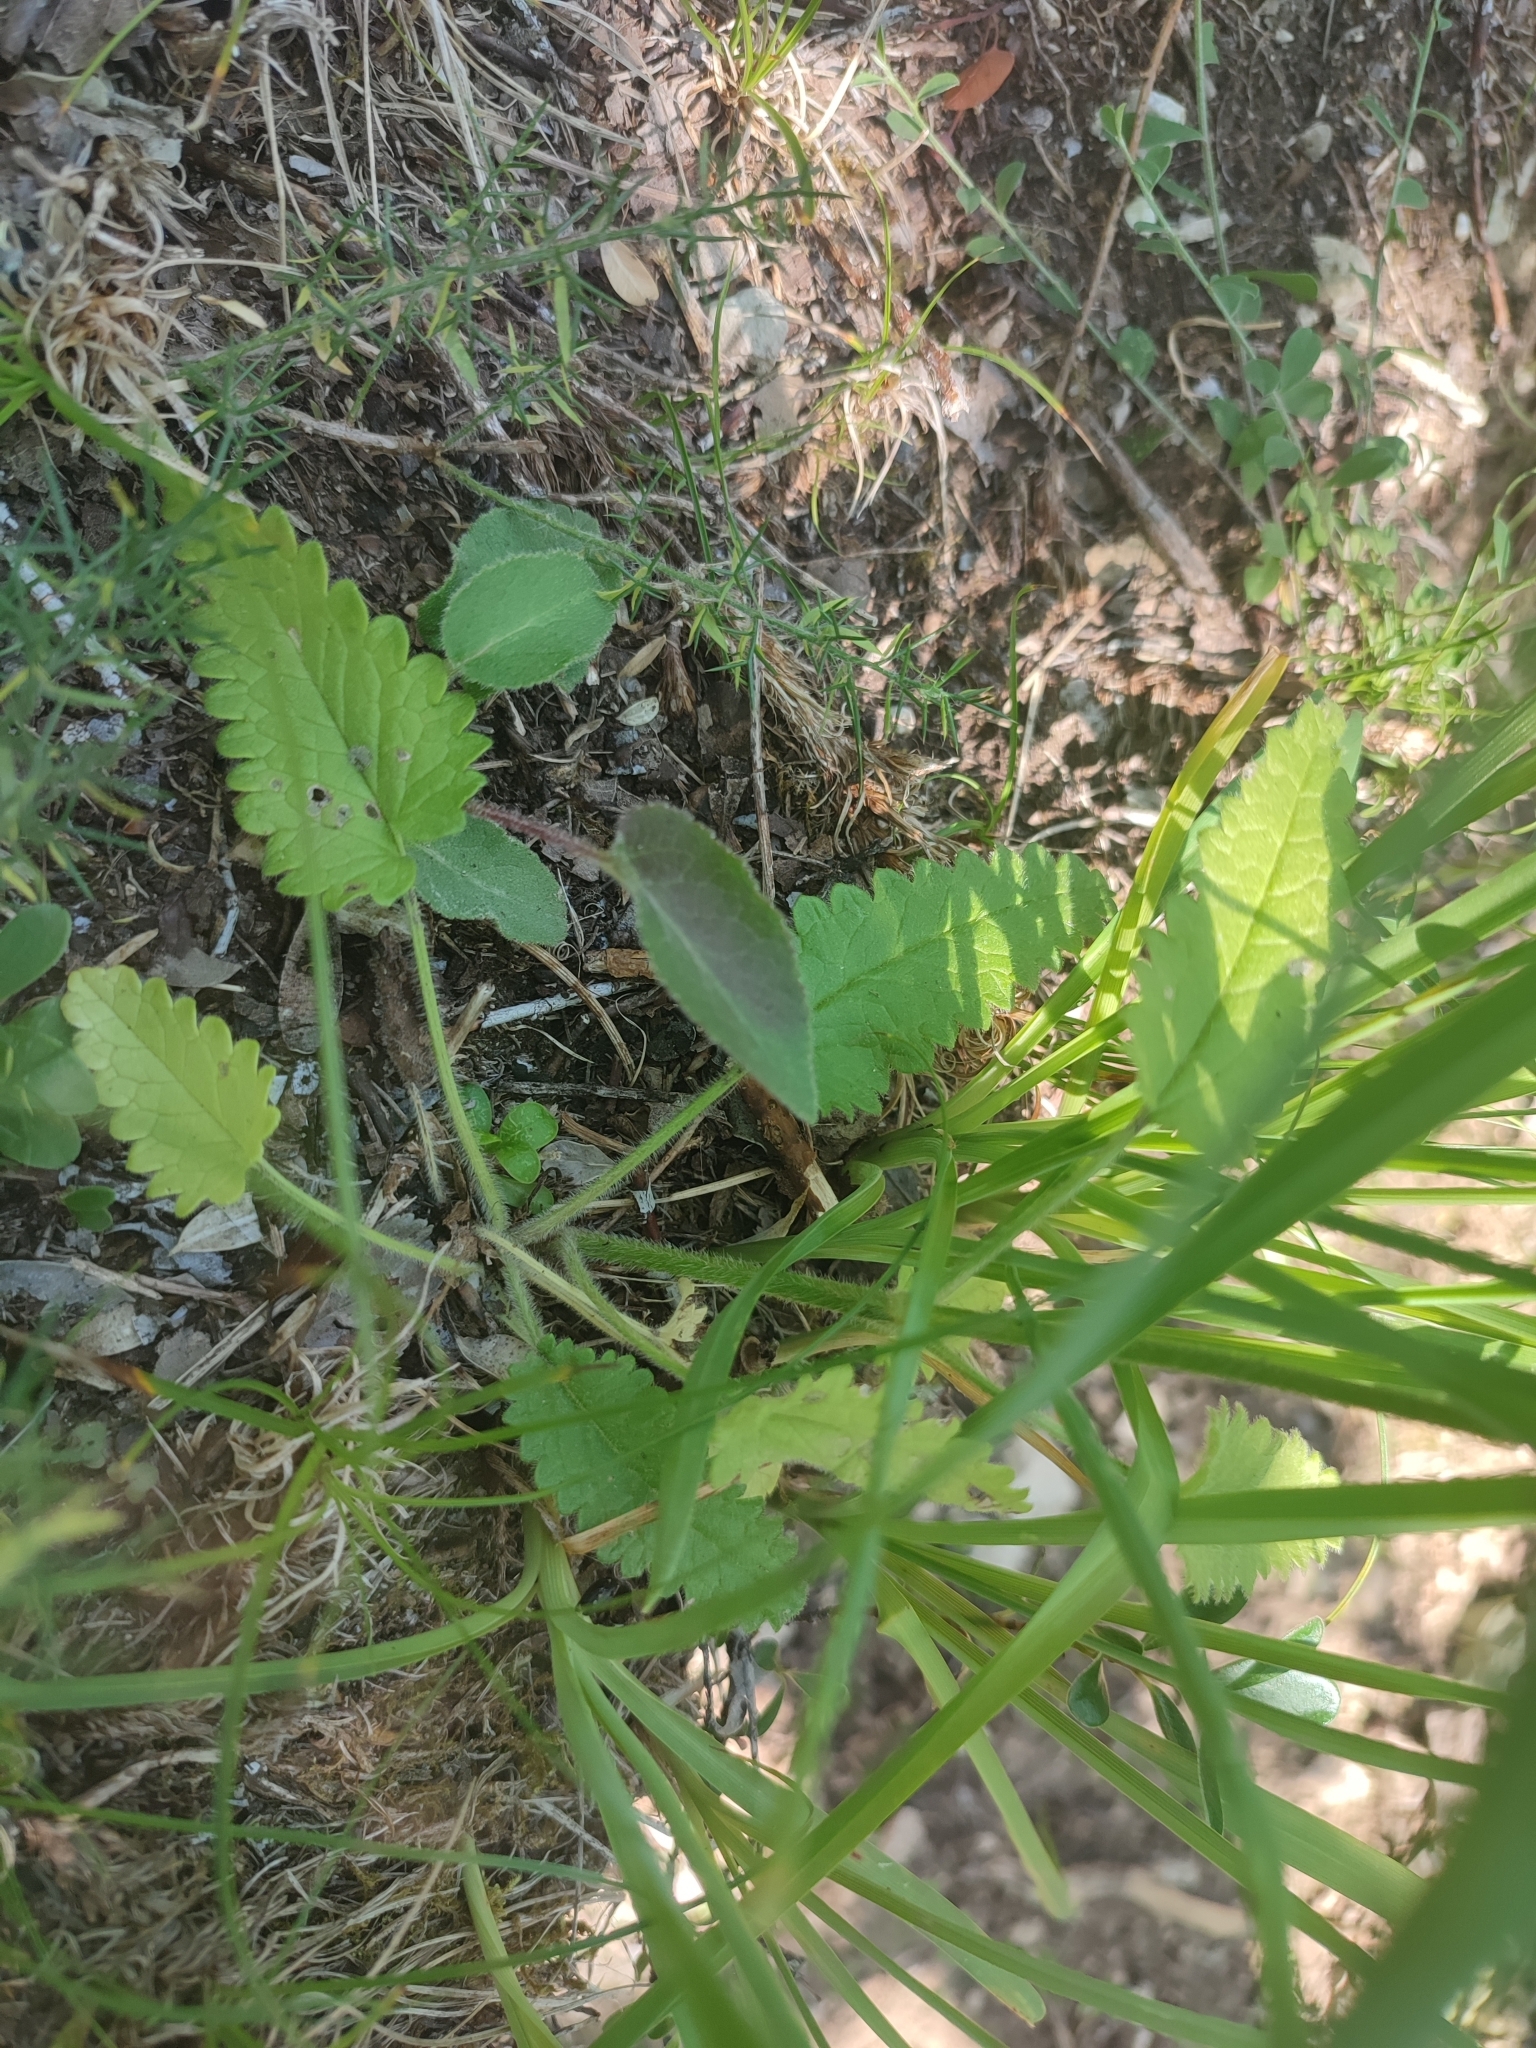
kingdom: Plantae
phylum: Tracheophyta
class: Magnoliopsida
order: Lamiales
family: Lamiaceae
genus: Betonica
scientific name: Betonica officinalis
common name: Bishop's-wort
